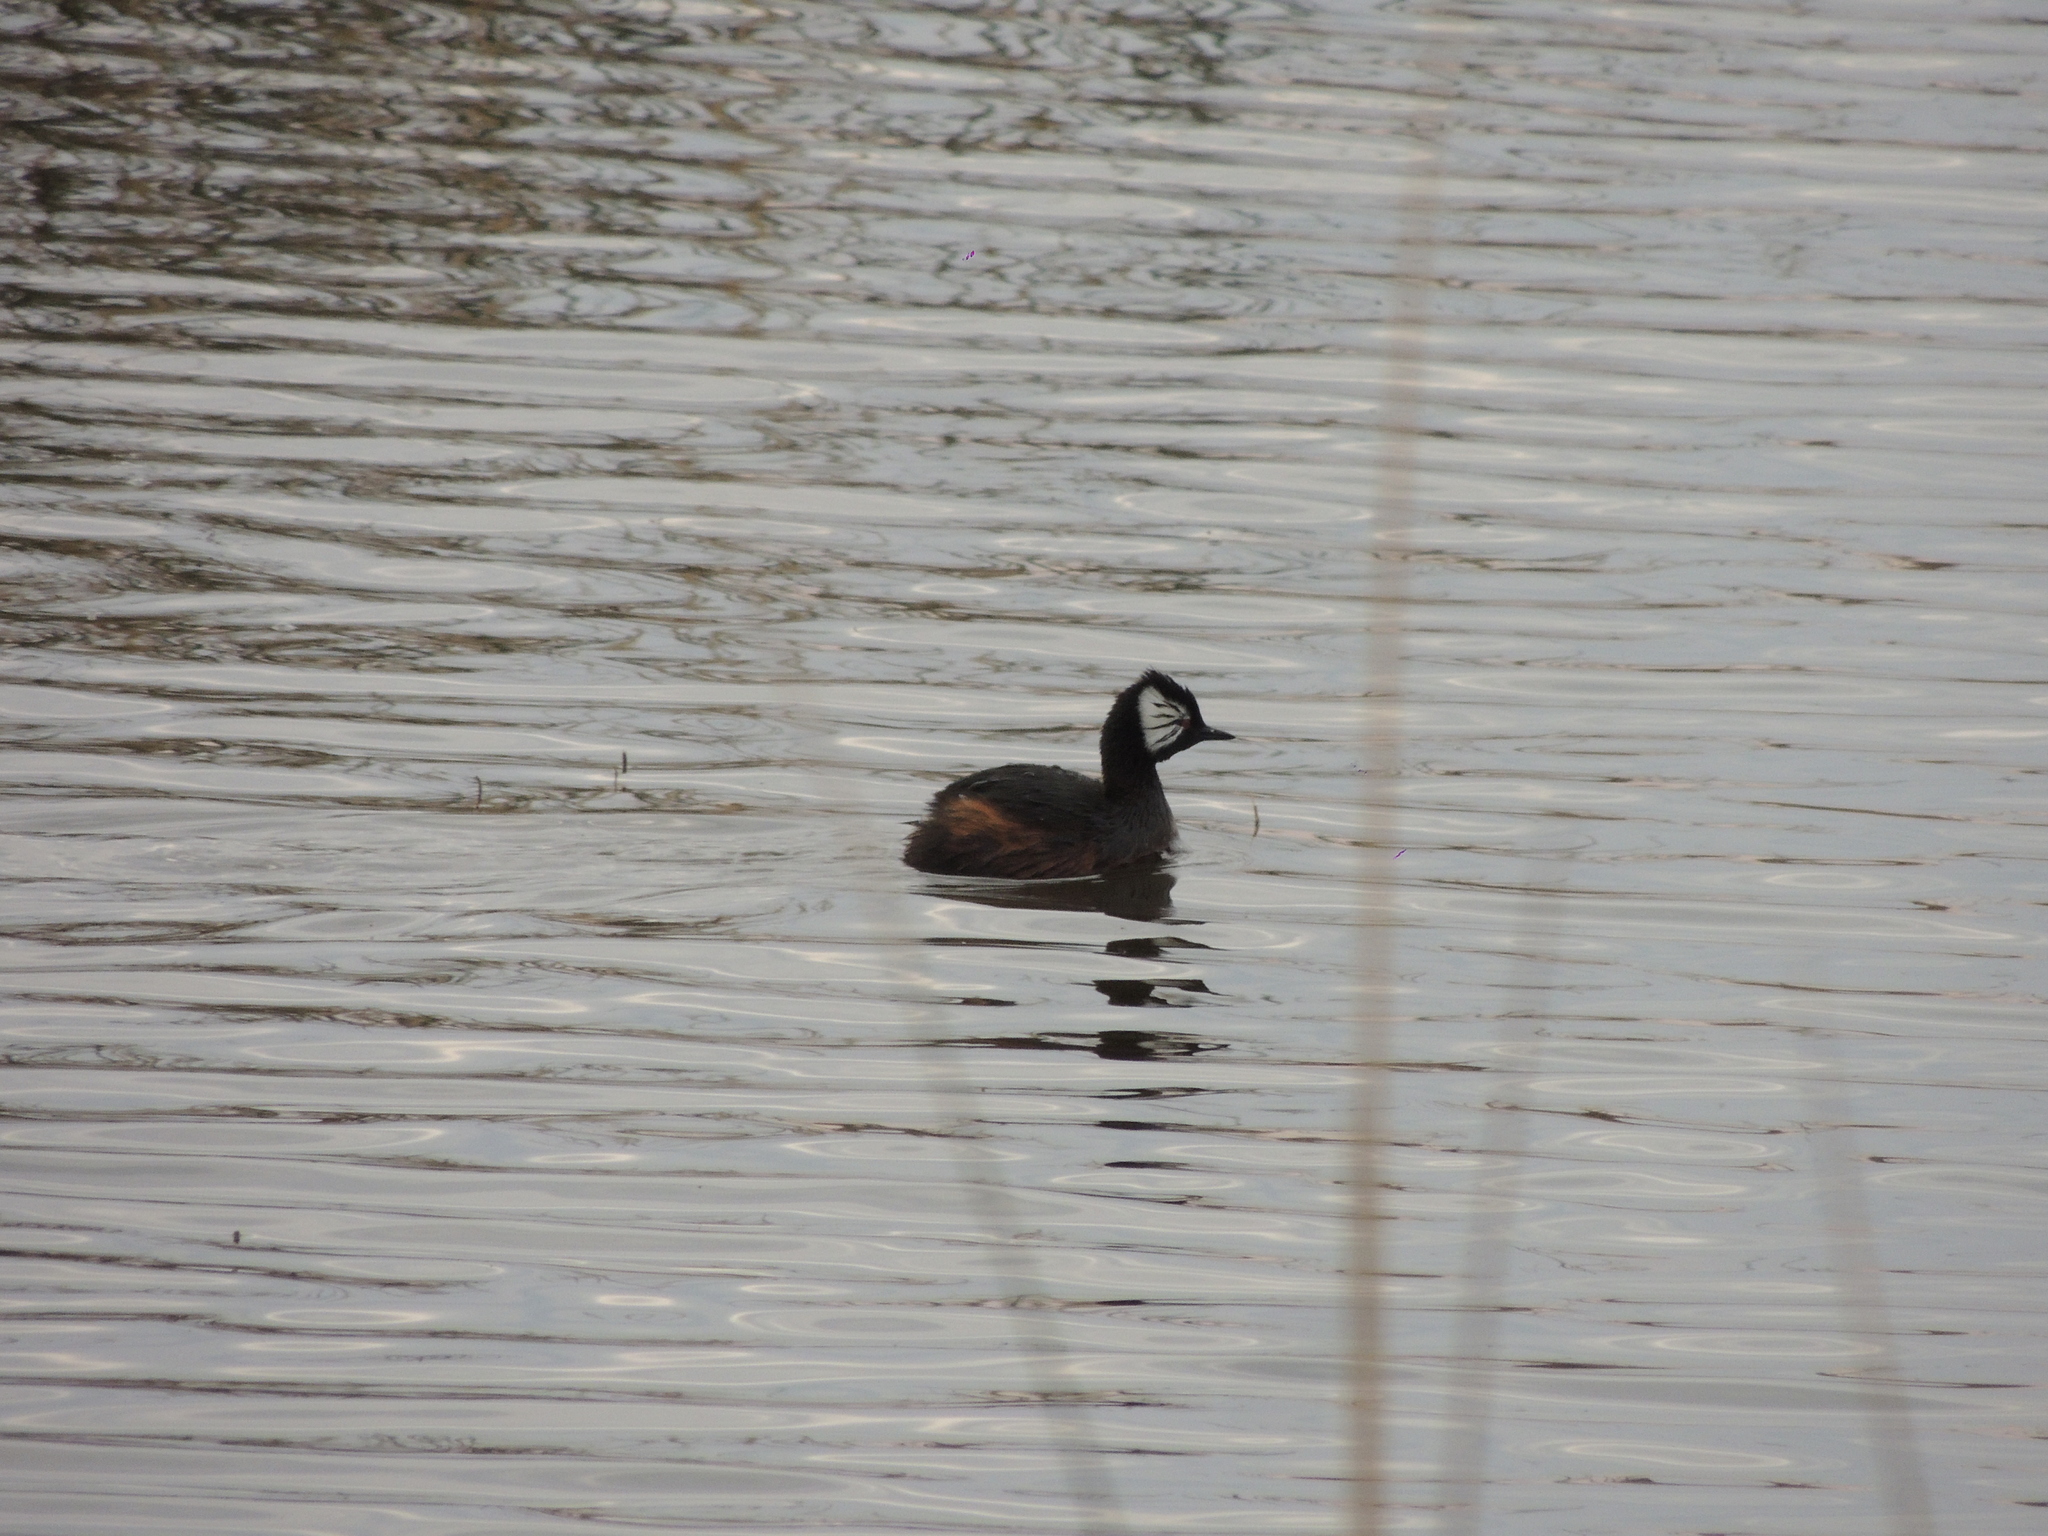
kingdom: Animalia
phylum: Chordata
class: Aves
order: Podicipediformes
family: Podicipedidae
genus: Rollandia
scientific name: Rollandia rolland
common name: White-tufted grebe
